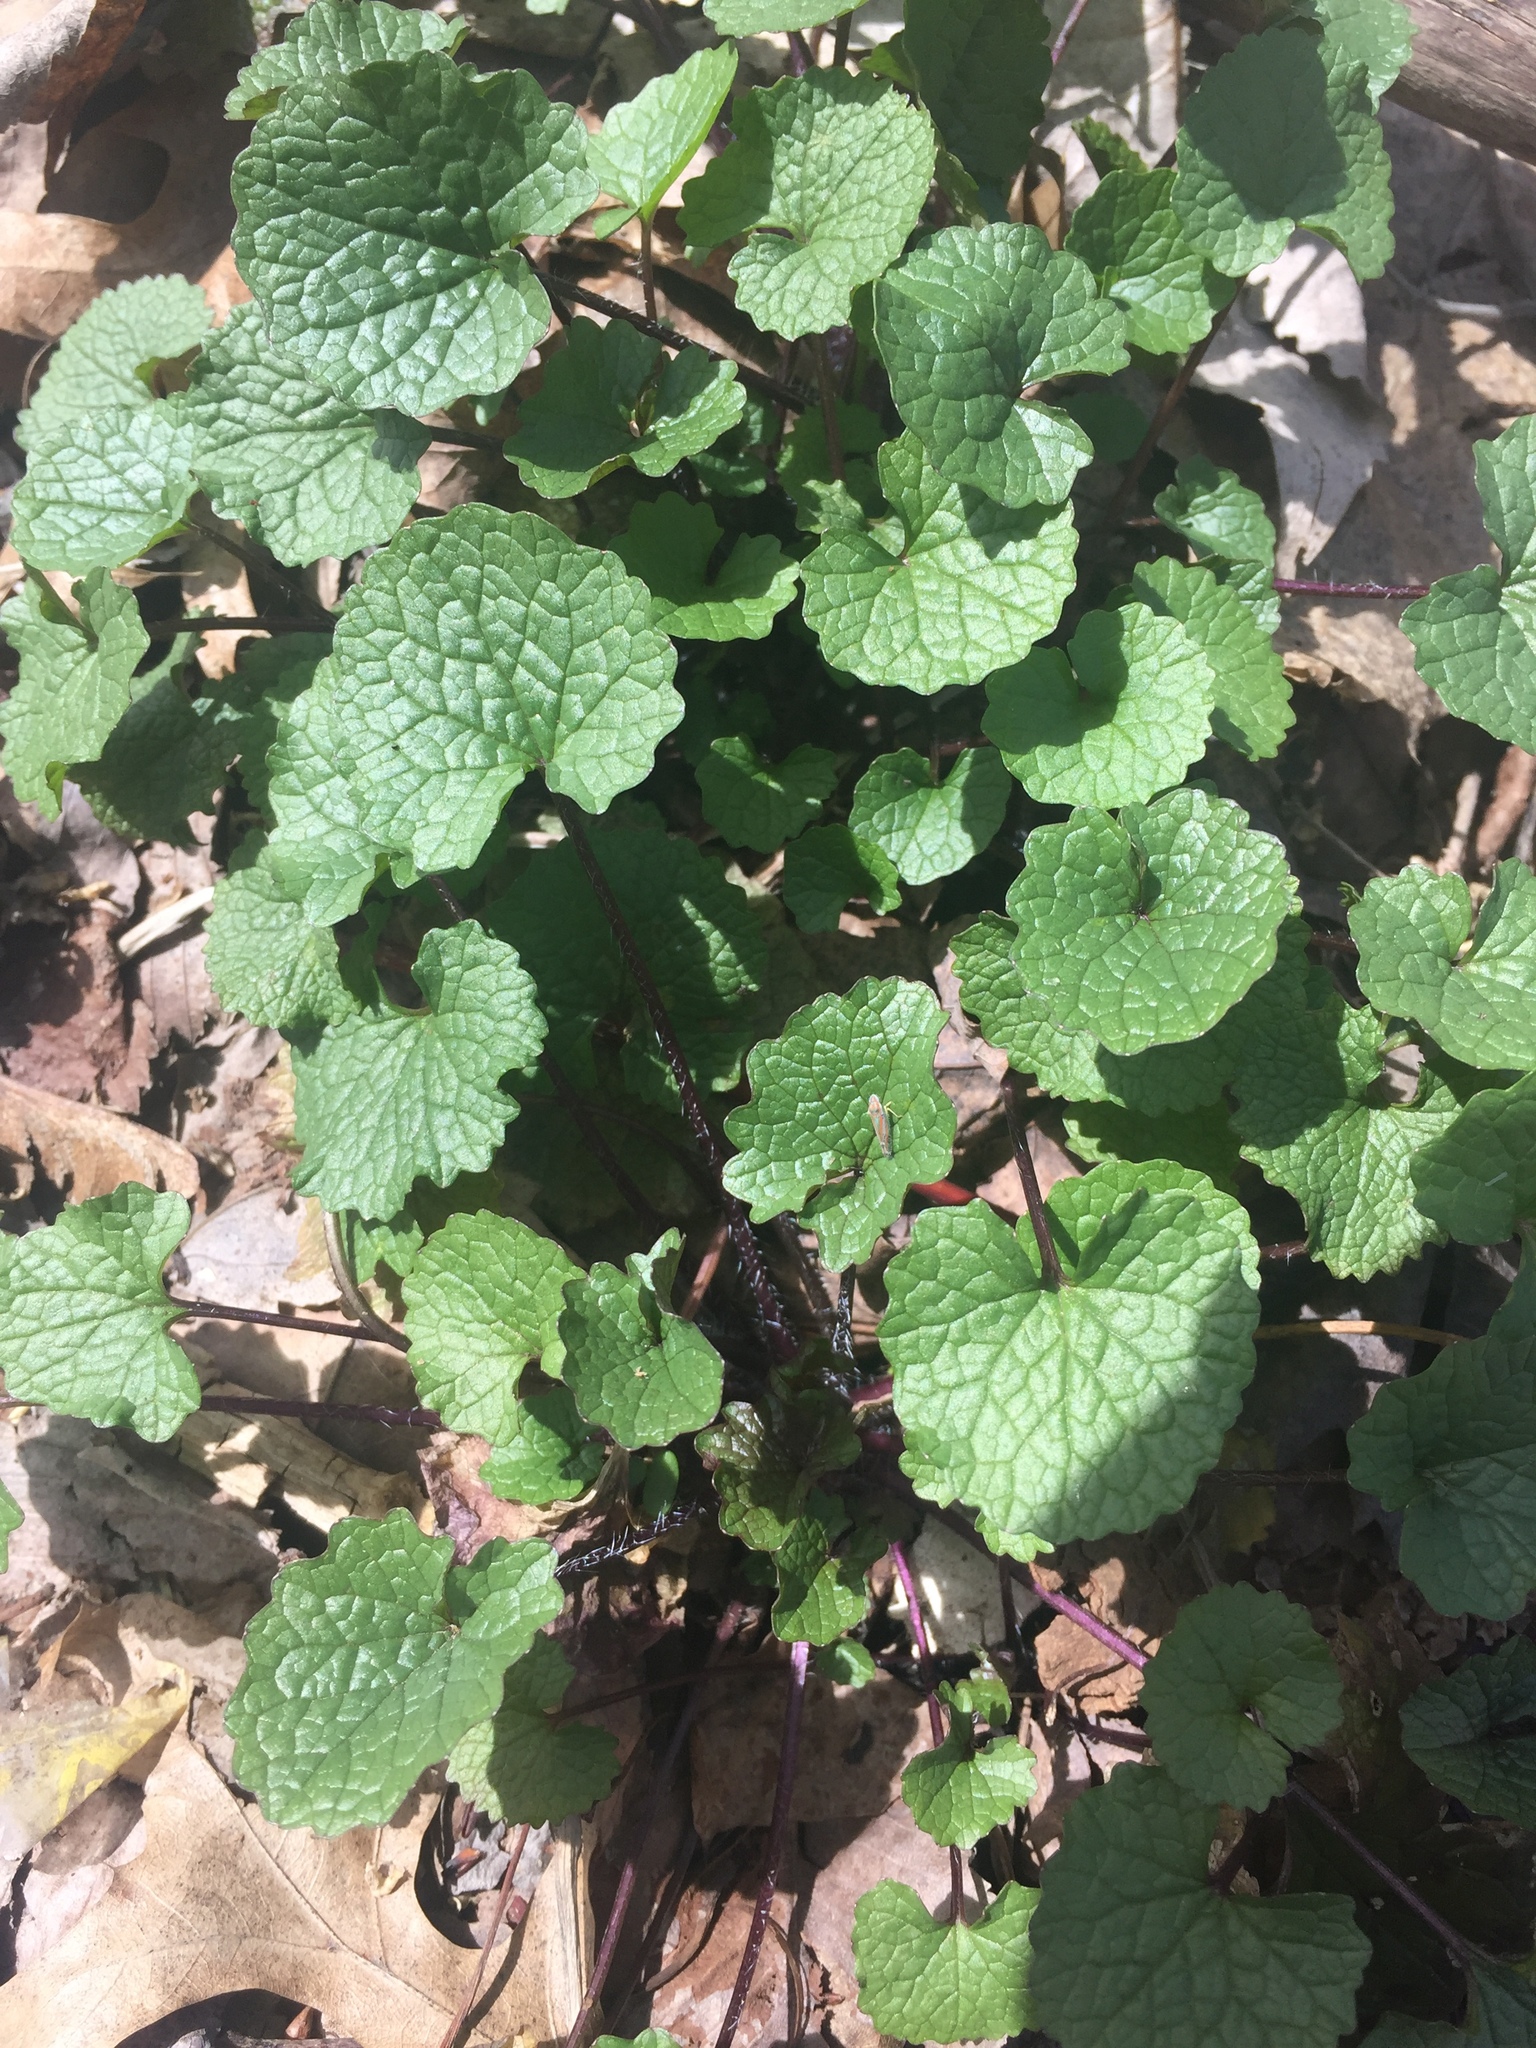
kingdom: Plantae
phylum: Tracheophyta
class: Magnoliopsida
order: Brassicales
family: Brassicaceae
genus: Alliaria
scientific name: Alliaria petiolata
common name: Garlic mustard
